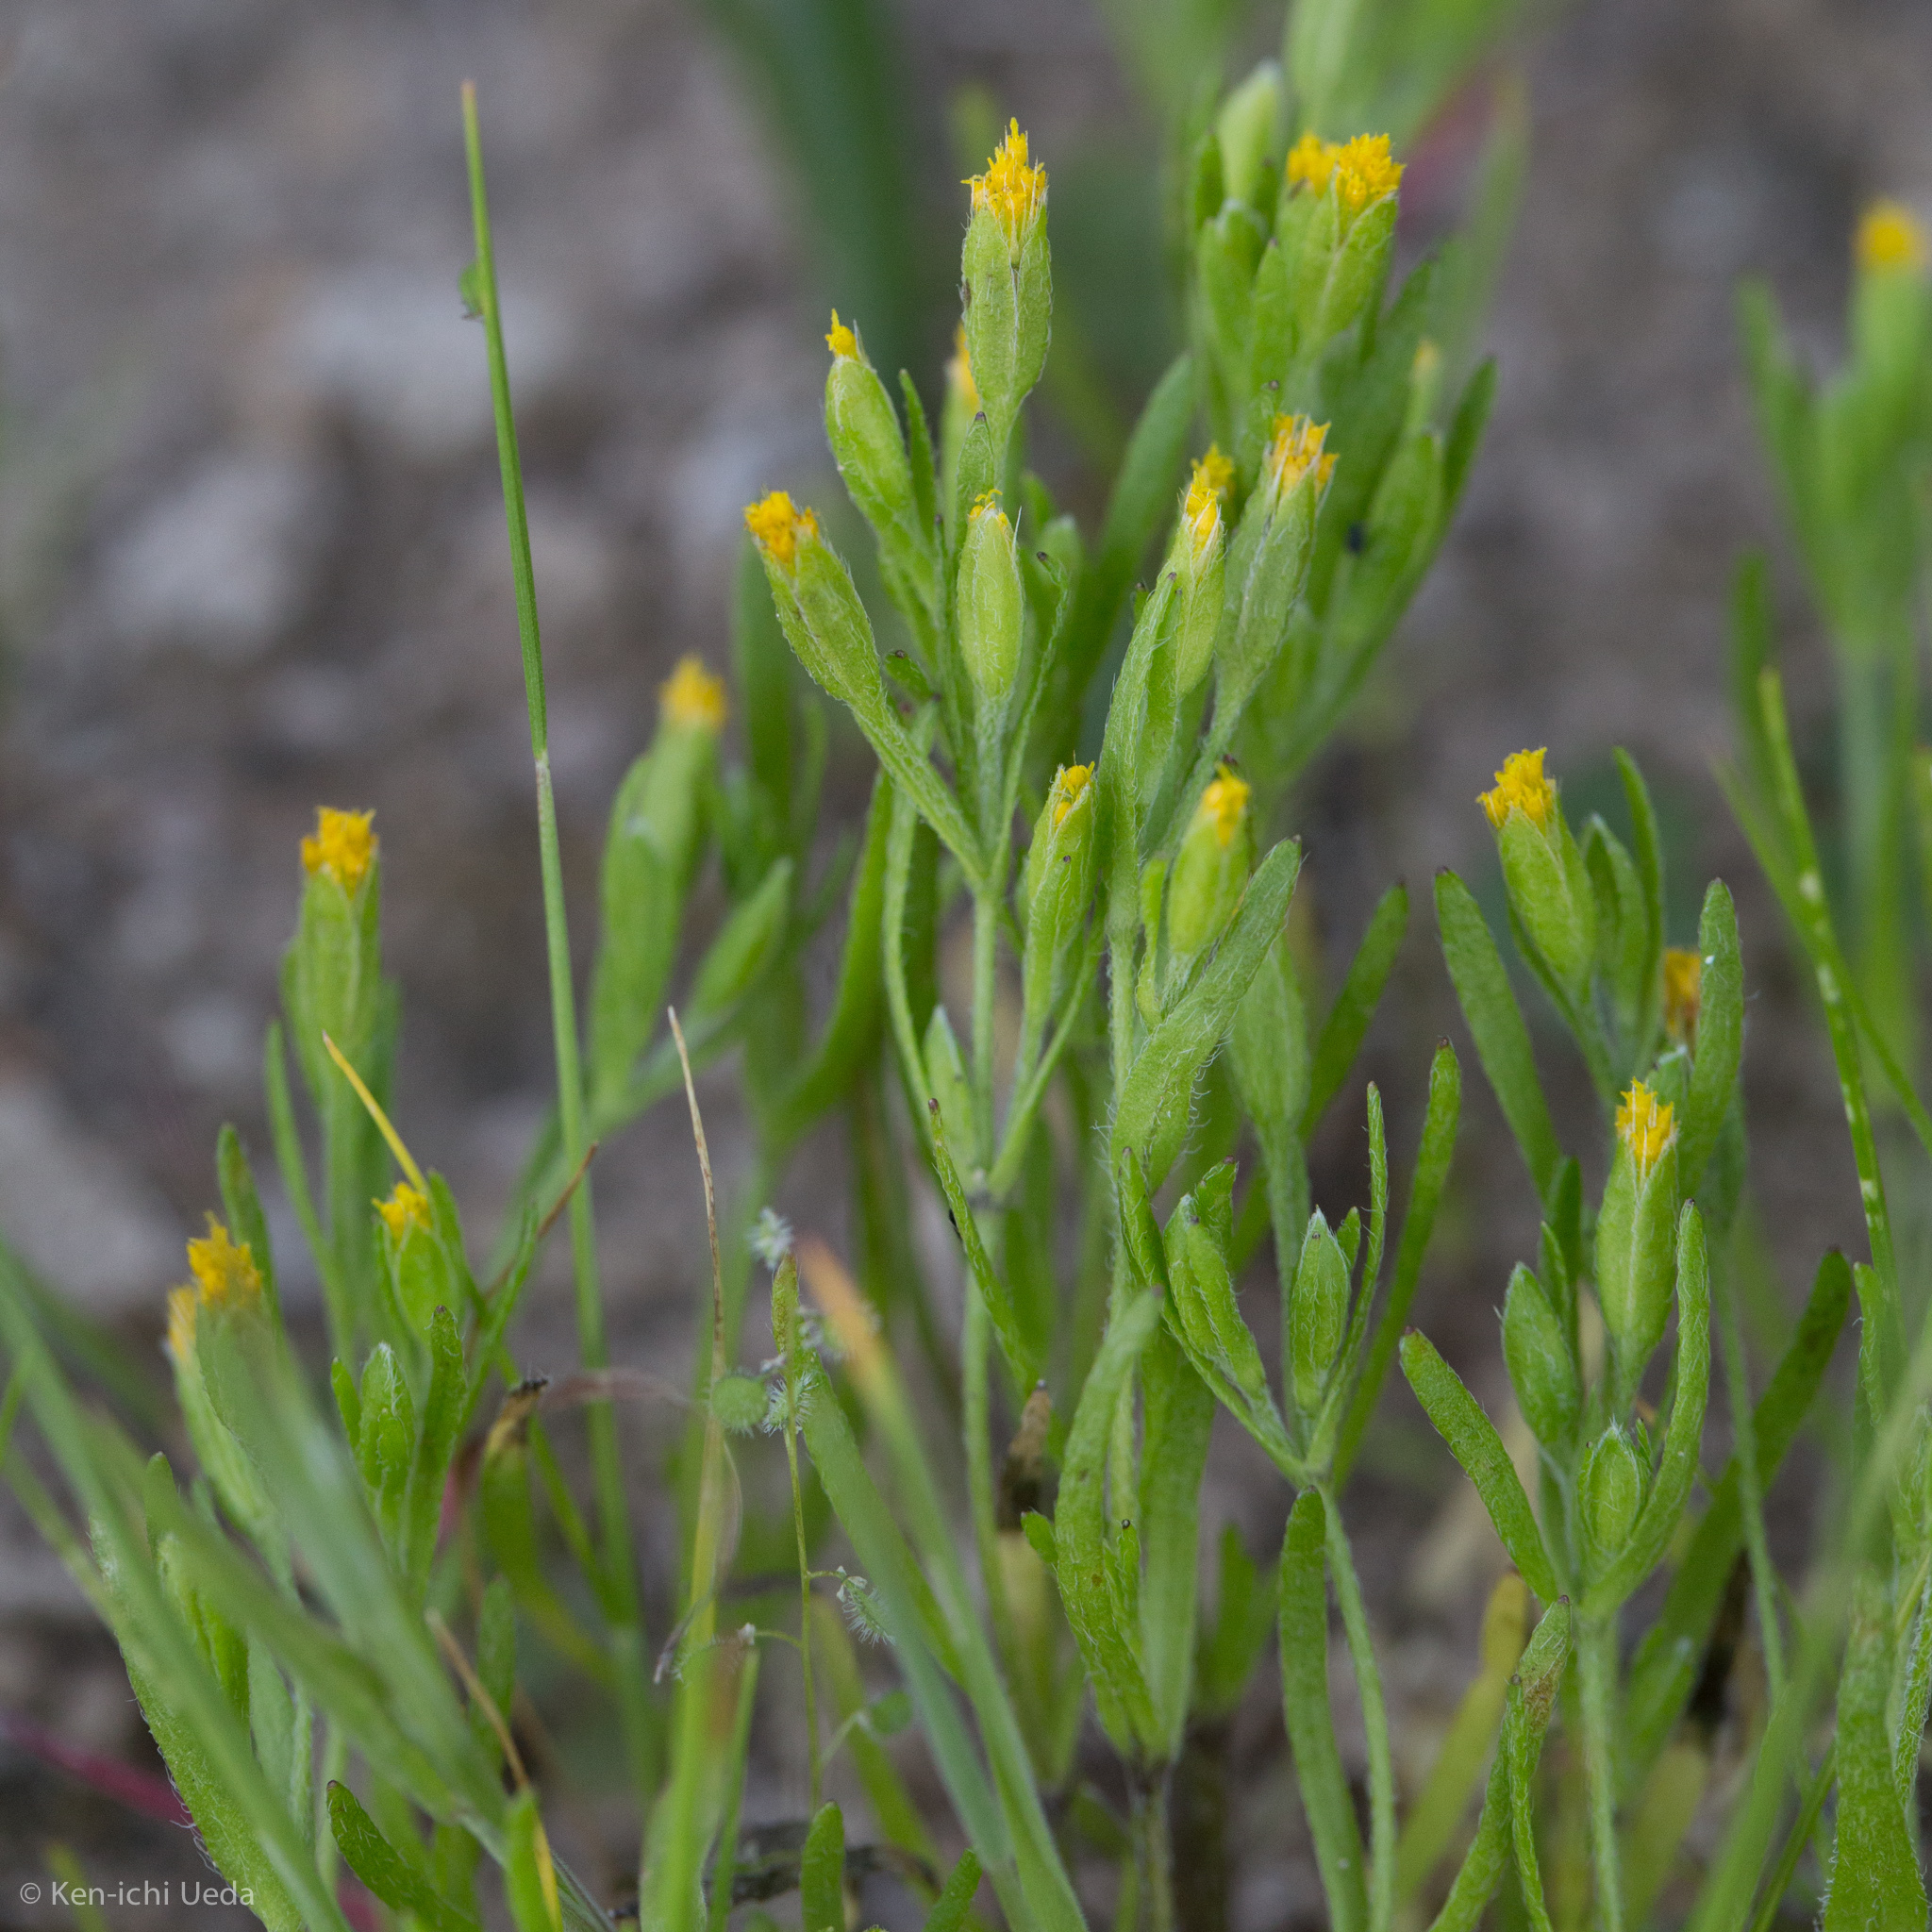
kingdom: Plantae
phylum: Tracheophyta
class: Magnoliopsida
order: Asterales
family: Asteraceae
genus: Lasthenia
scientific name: Lasthenia microglossa
